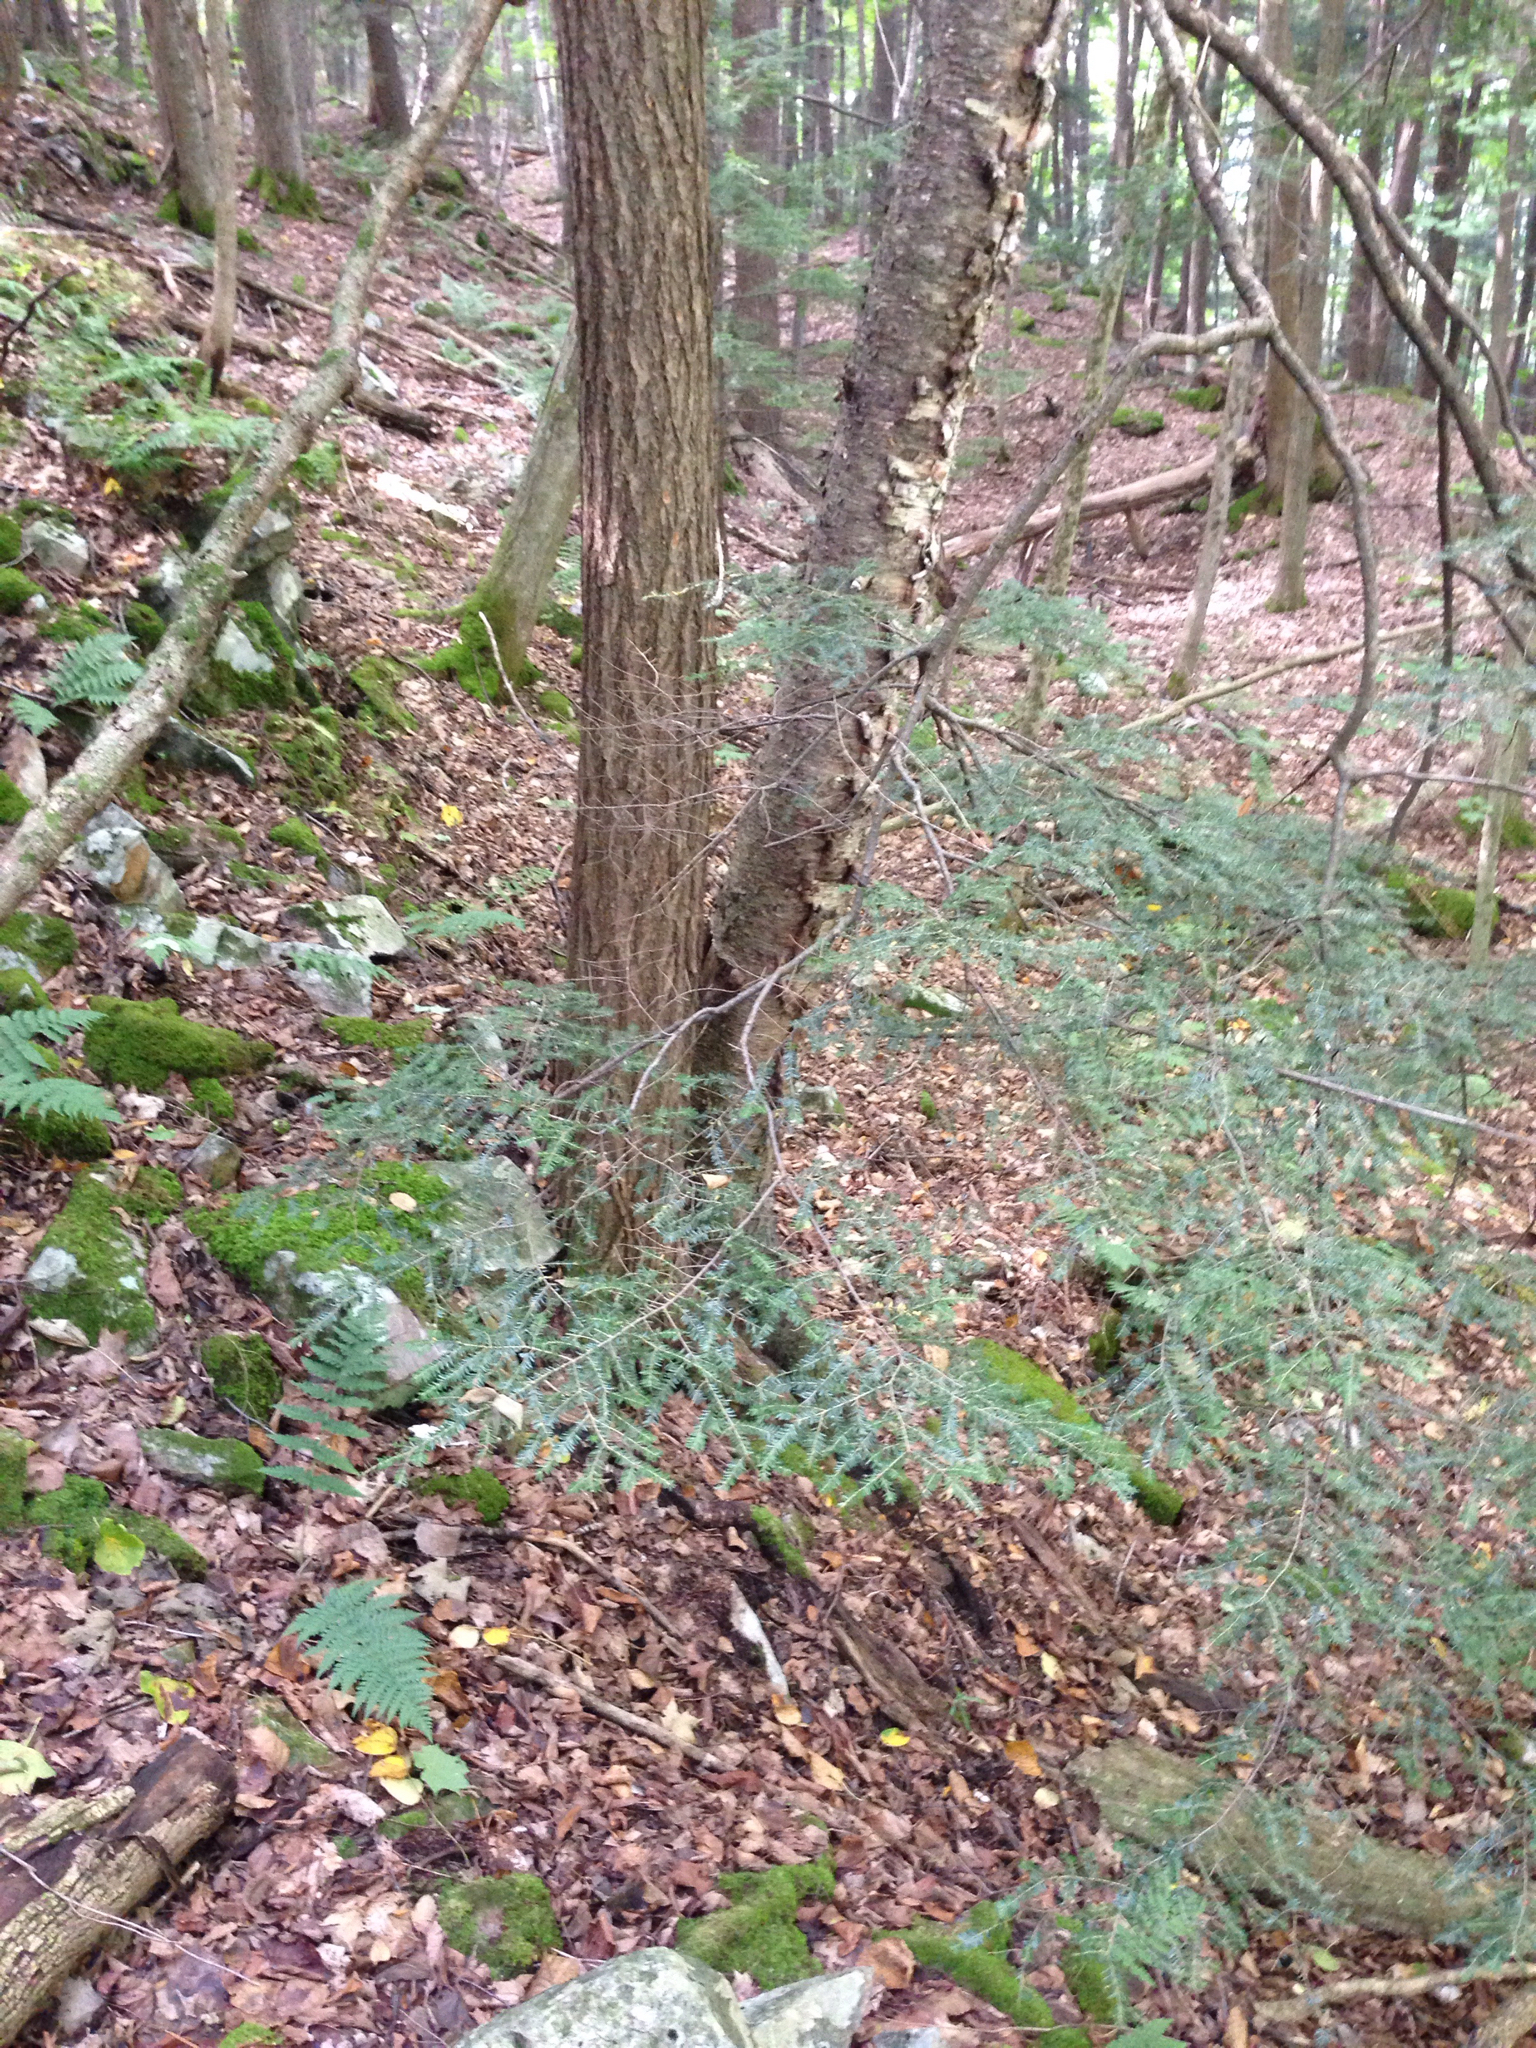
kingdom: Plantae
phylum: Tracheophyta
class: Pinopsida
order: Pinales
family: Pinaceae
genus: Tsuga
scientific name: Tsuga canadensis
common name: Eastern hemlock
